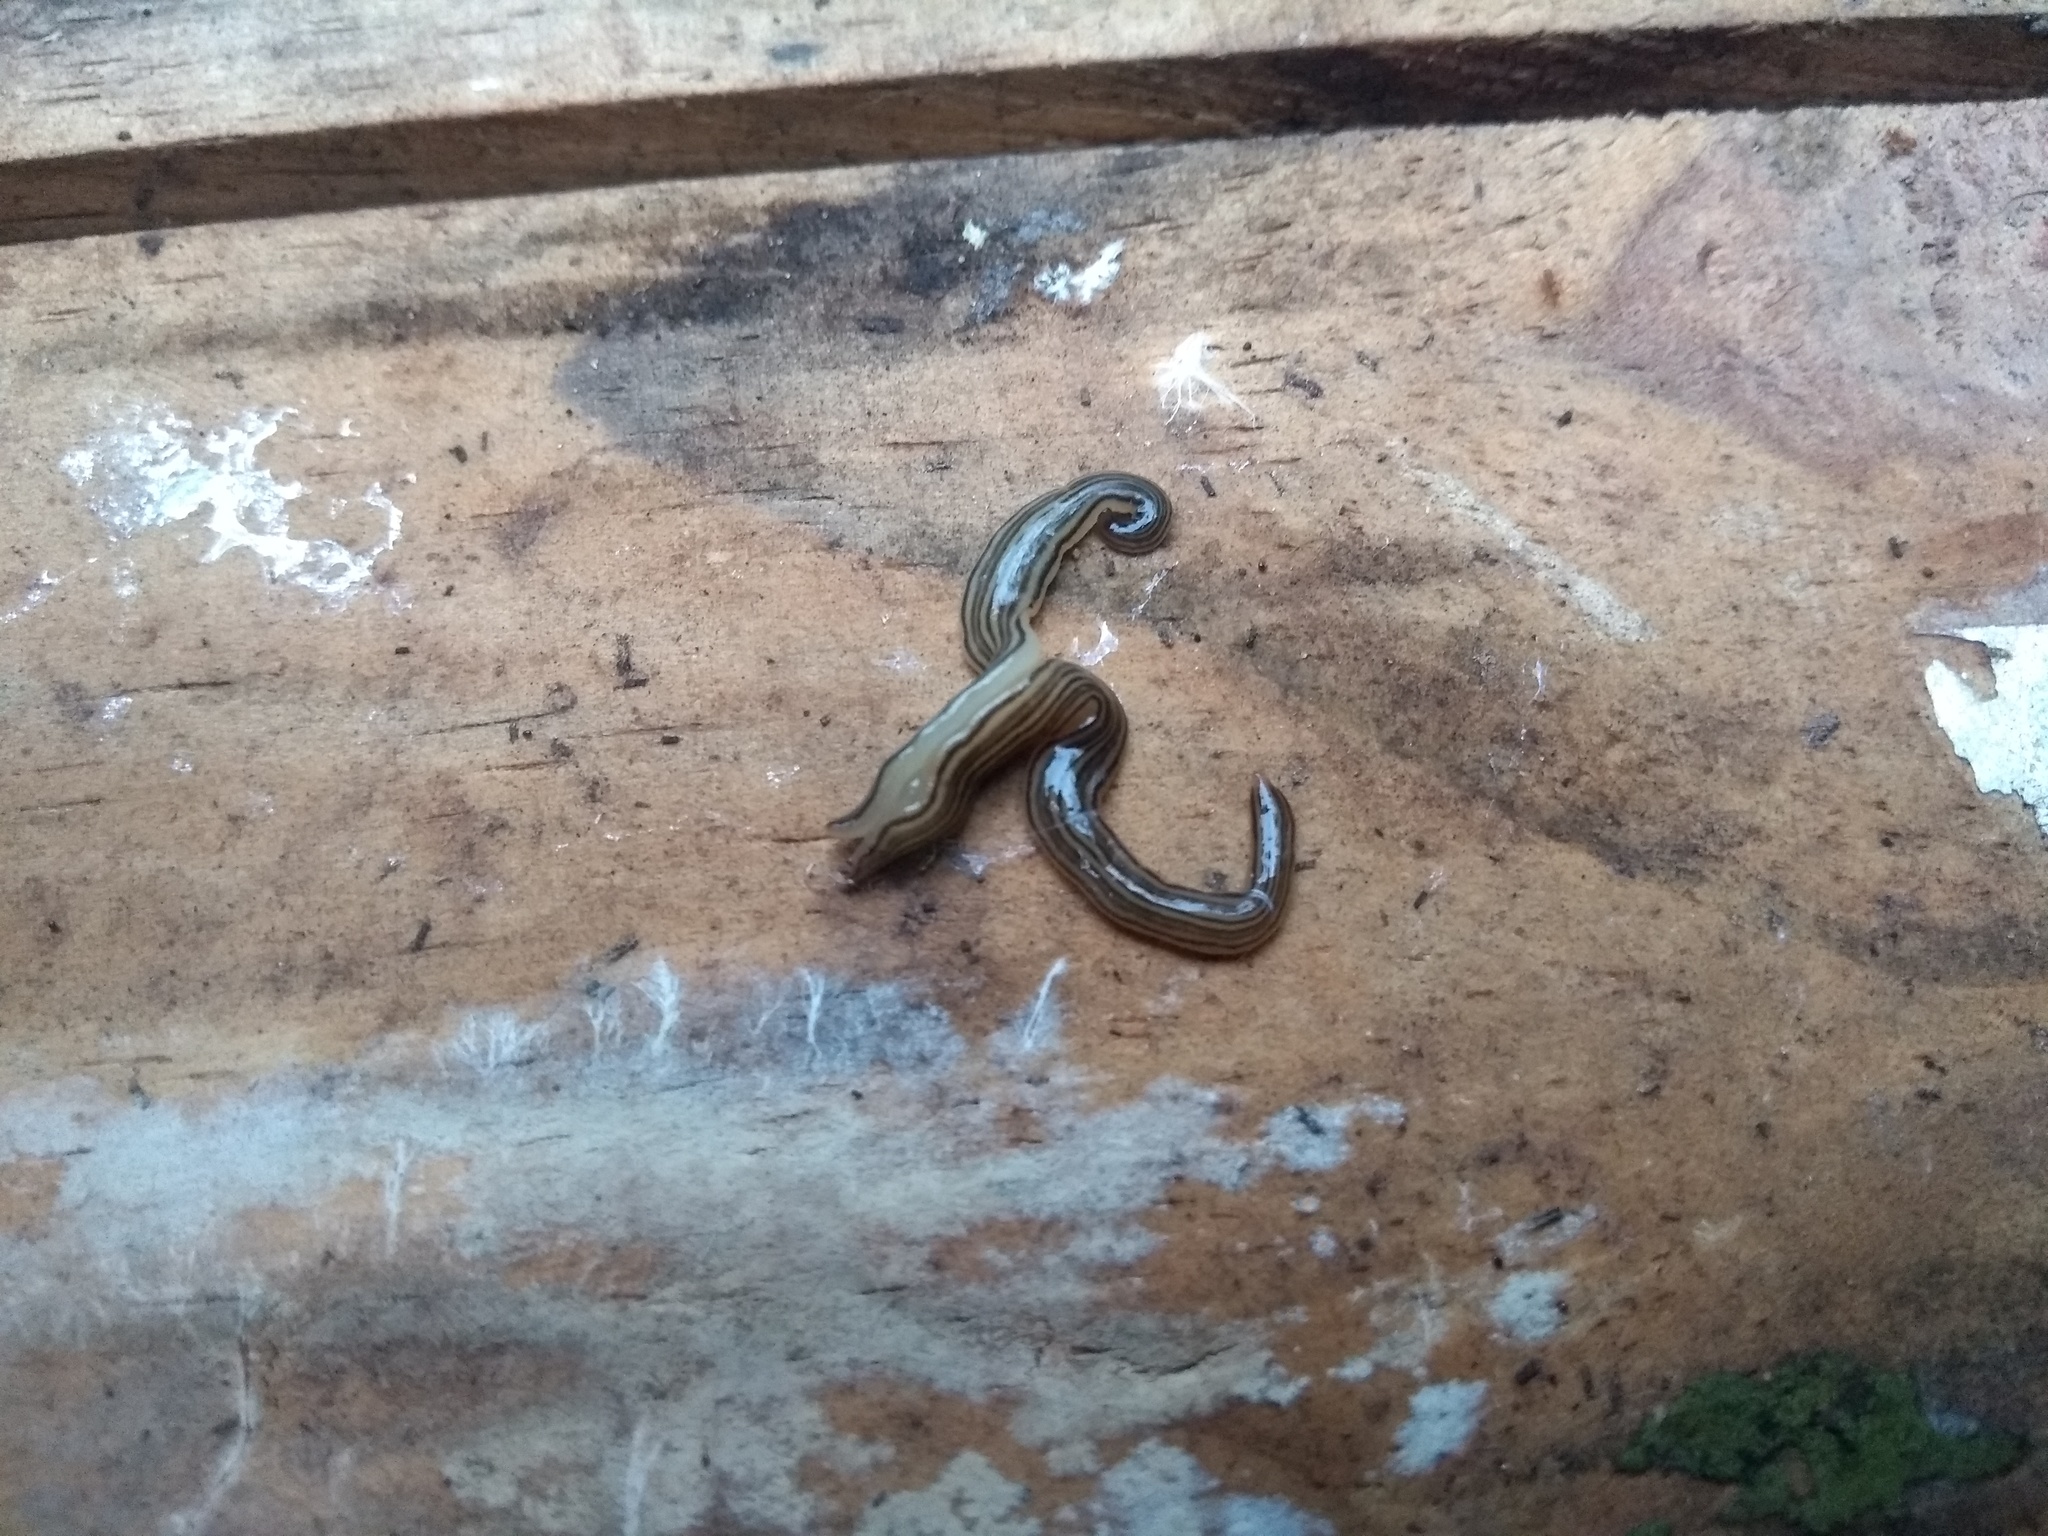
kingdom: Animalia
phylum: Platyhelminthes
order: Tricladida
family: Geoplanidae
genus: Luteostriata
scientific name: Luteostriata abundans
